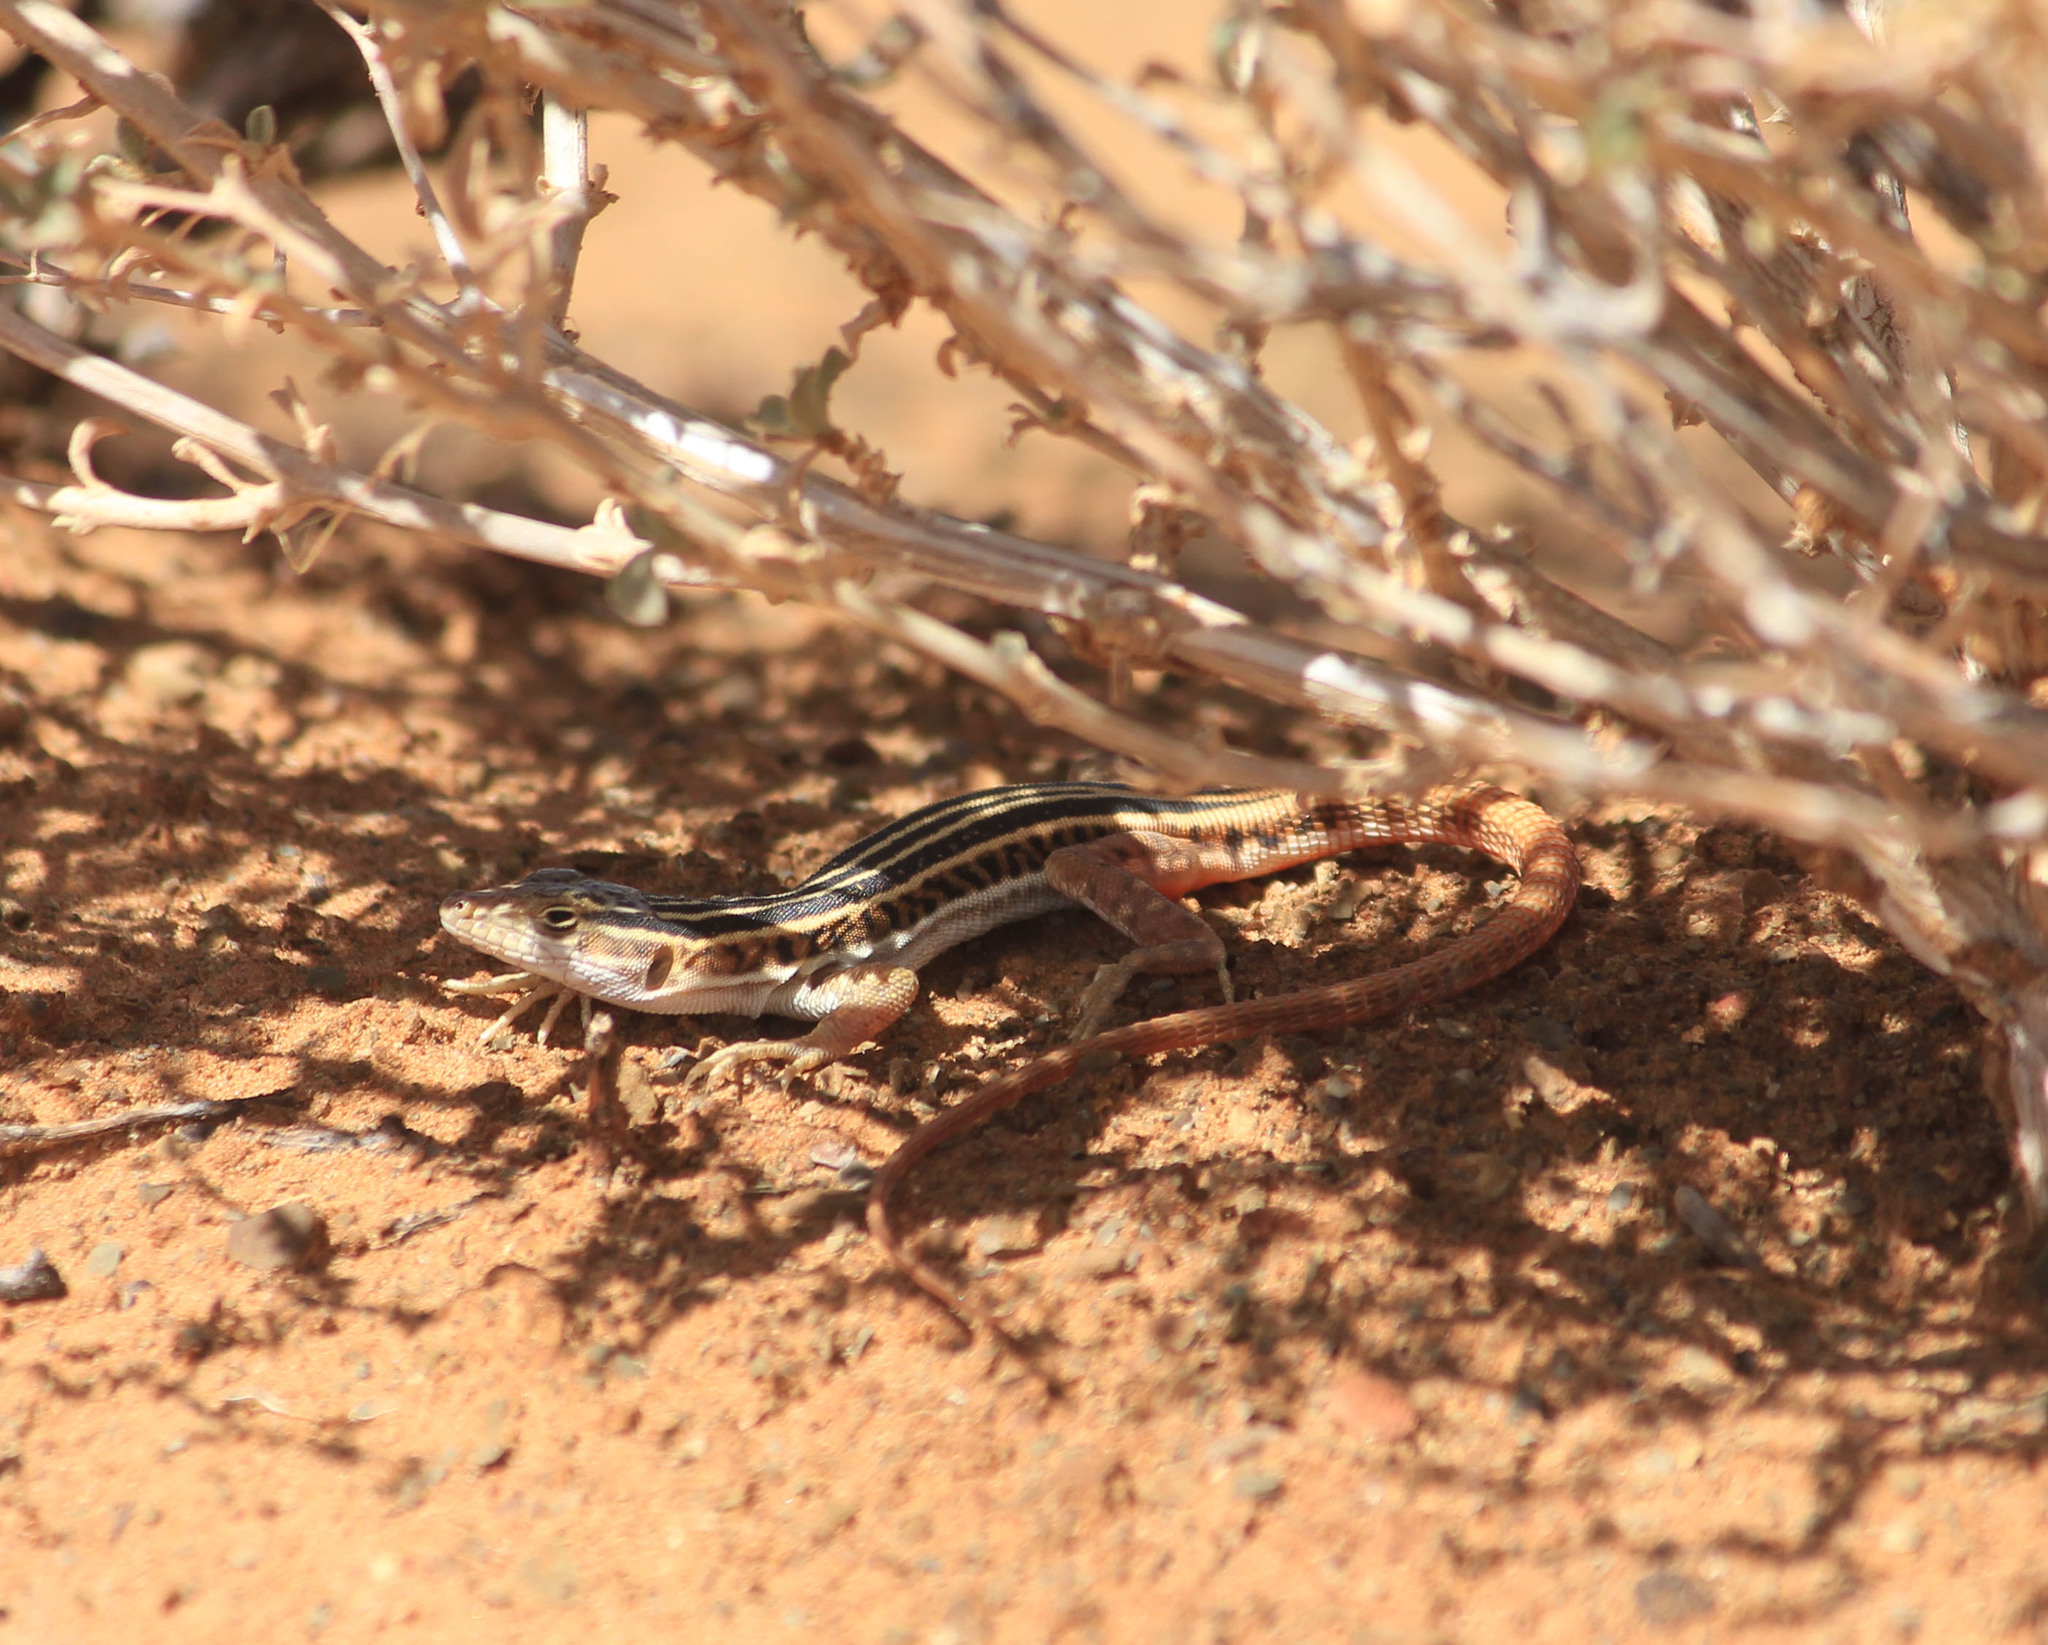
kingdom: Animalia
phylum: Chordata
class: Squamata
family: Lacertidae
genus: Pedioplanis
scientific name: Pedioplanis laticeps
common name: Karoo sand lizard
